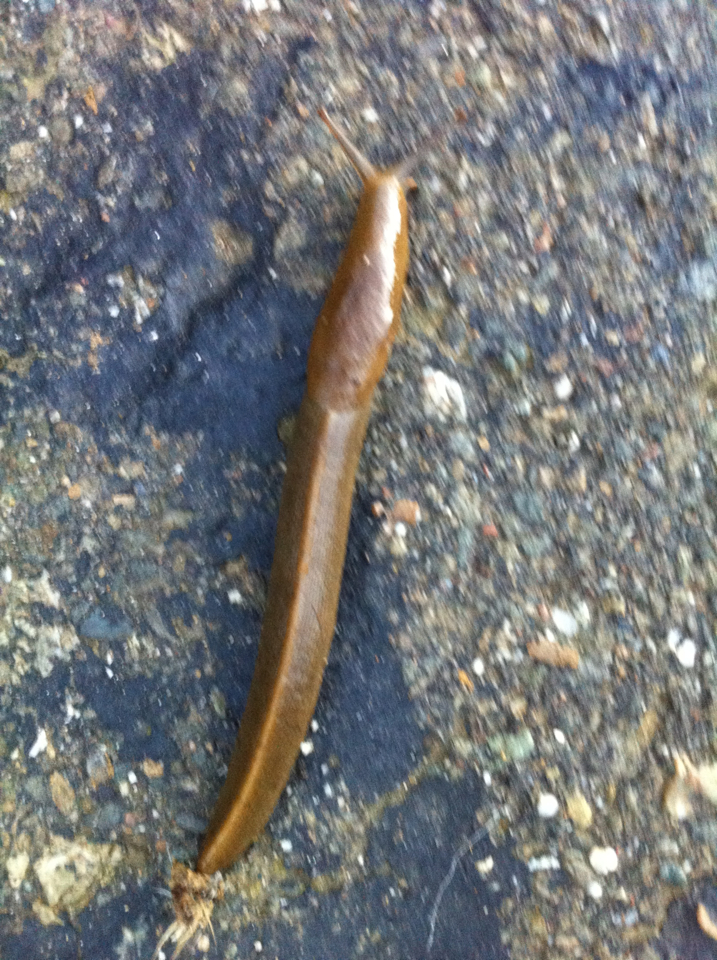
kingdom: Animalia
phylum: Mollusca
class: Gastropoda
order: Stylommatophora
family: Ariolimacidae
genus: Ariolimax
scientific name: Ariolimax buttoni
